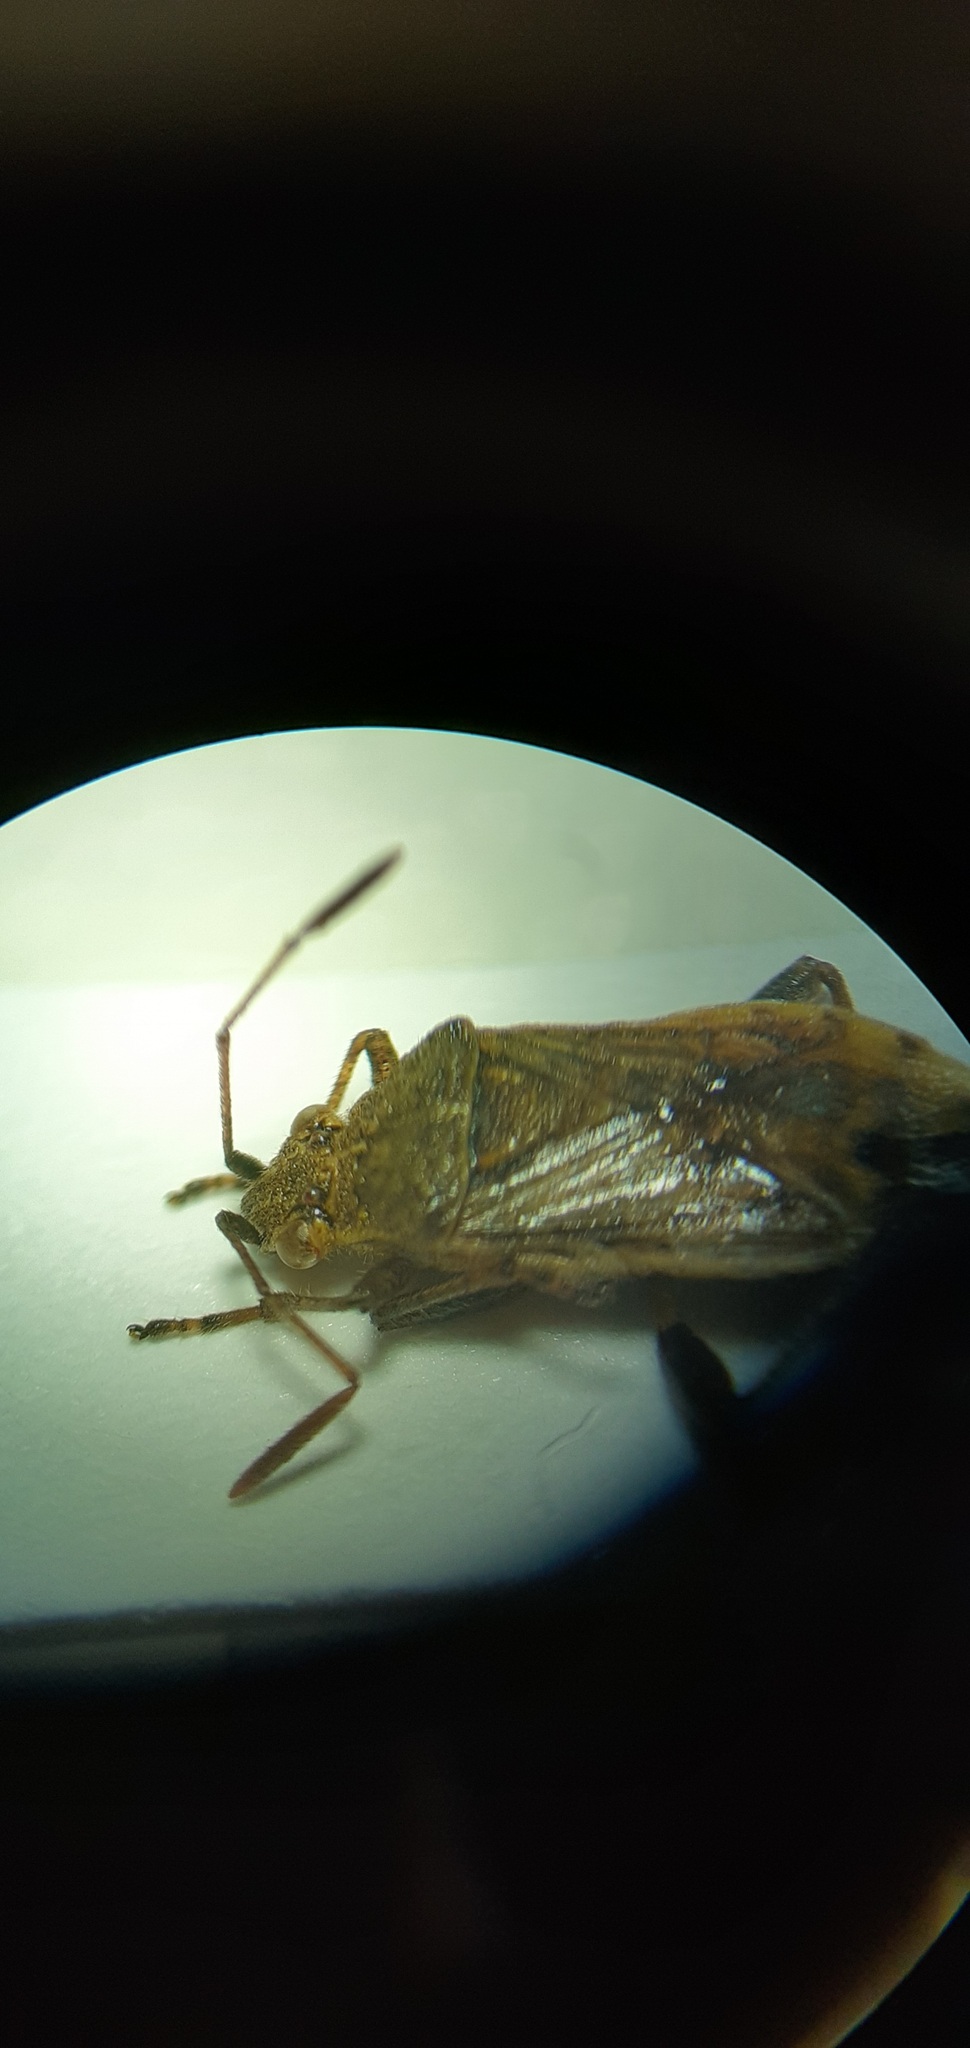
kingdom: Animalia
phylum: Arthropoda
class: Insecta
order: Hemiptera
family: Rhopalidae
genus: Stictopleurus
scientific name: Stictopleurus punctatonervosus
